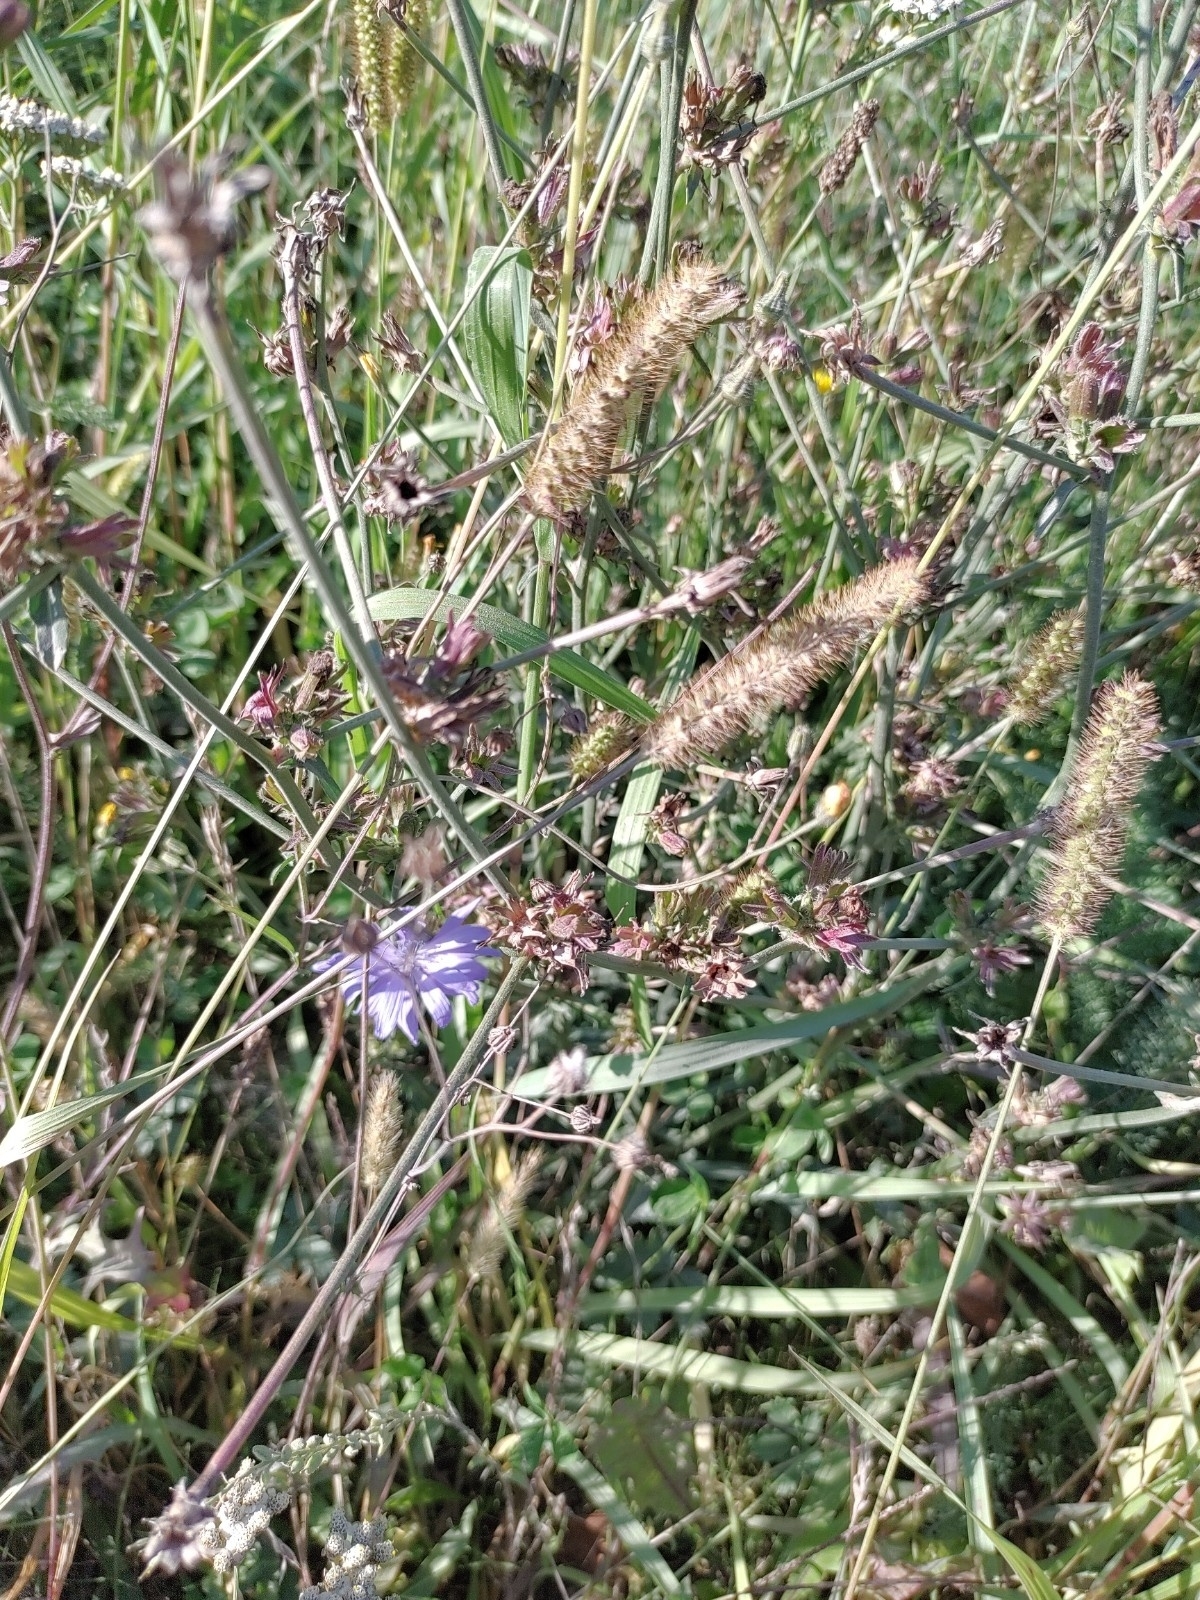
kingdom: Plantae
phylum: Tracheophyta
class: Magnoliopsida
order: Asterales
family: Asteraceae
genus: Cichorium
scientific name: Cichorium intybus
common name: Chicory
